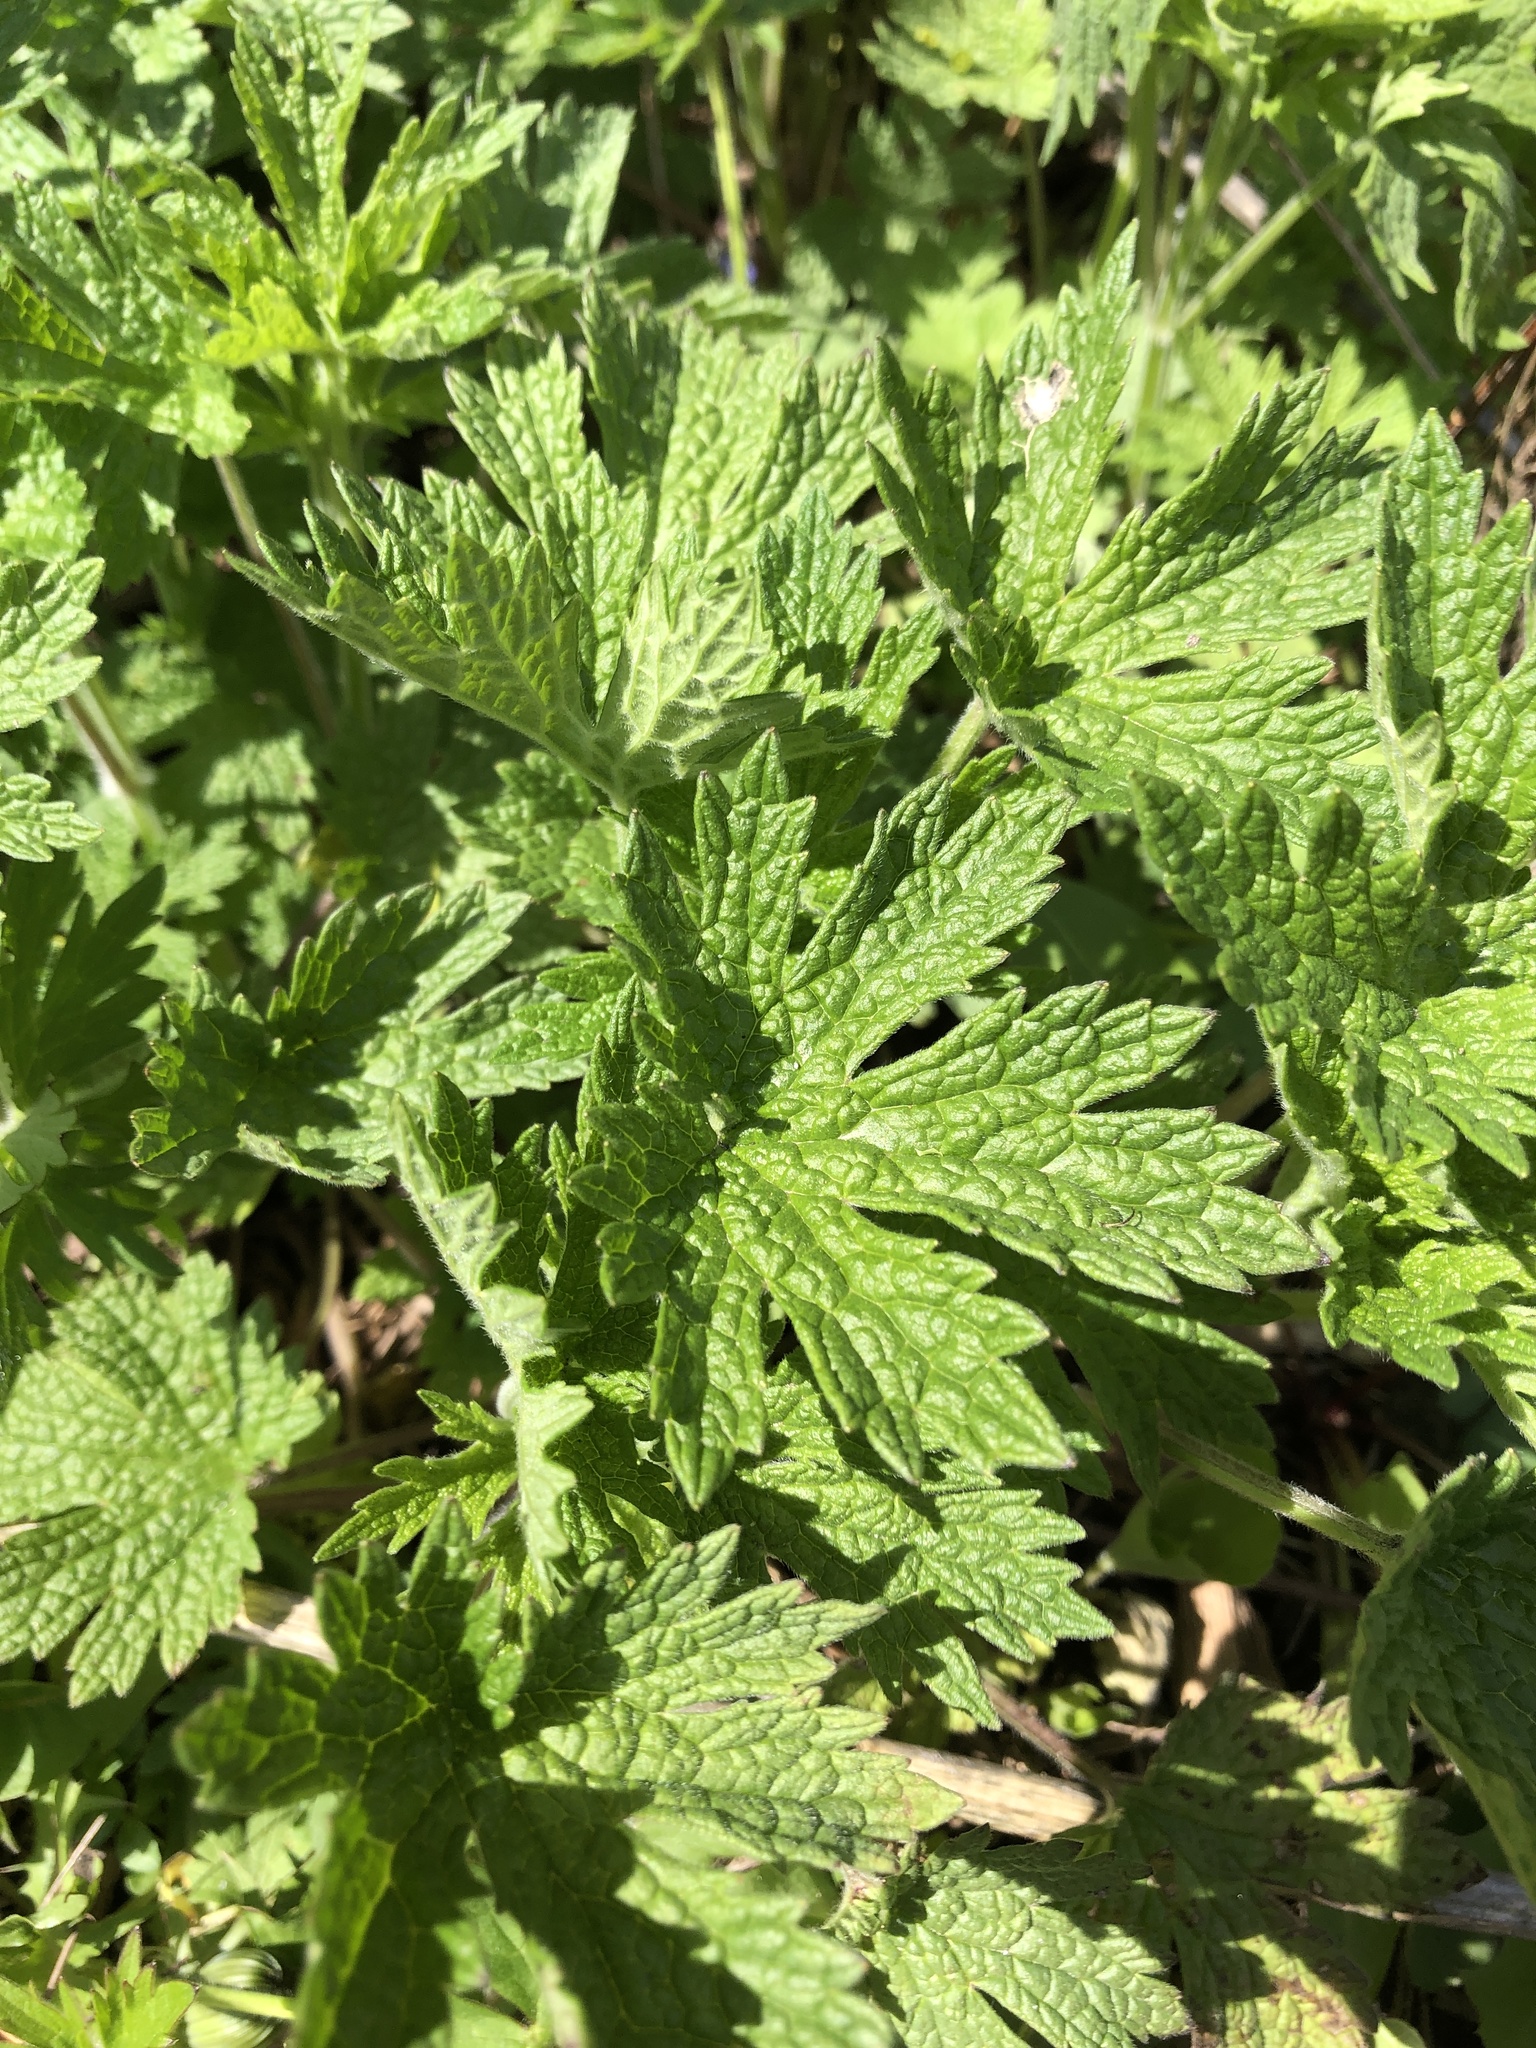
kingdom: Plantae
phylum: Tracheophyta
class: Magnoliopsida
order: Lamiales
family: Lamiaceae
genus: Leonurus
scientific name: Leonurus cardiaca
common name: Motherwort
